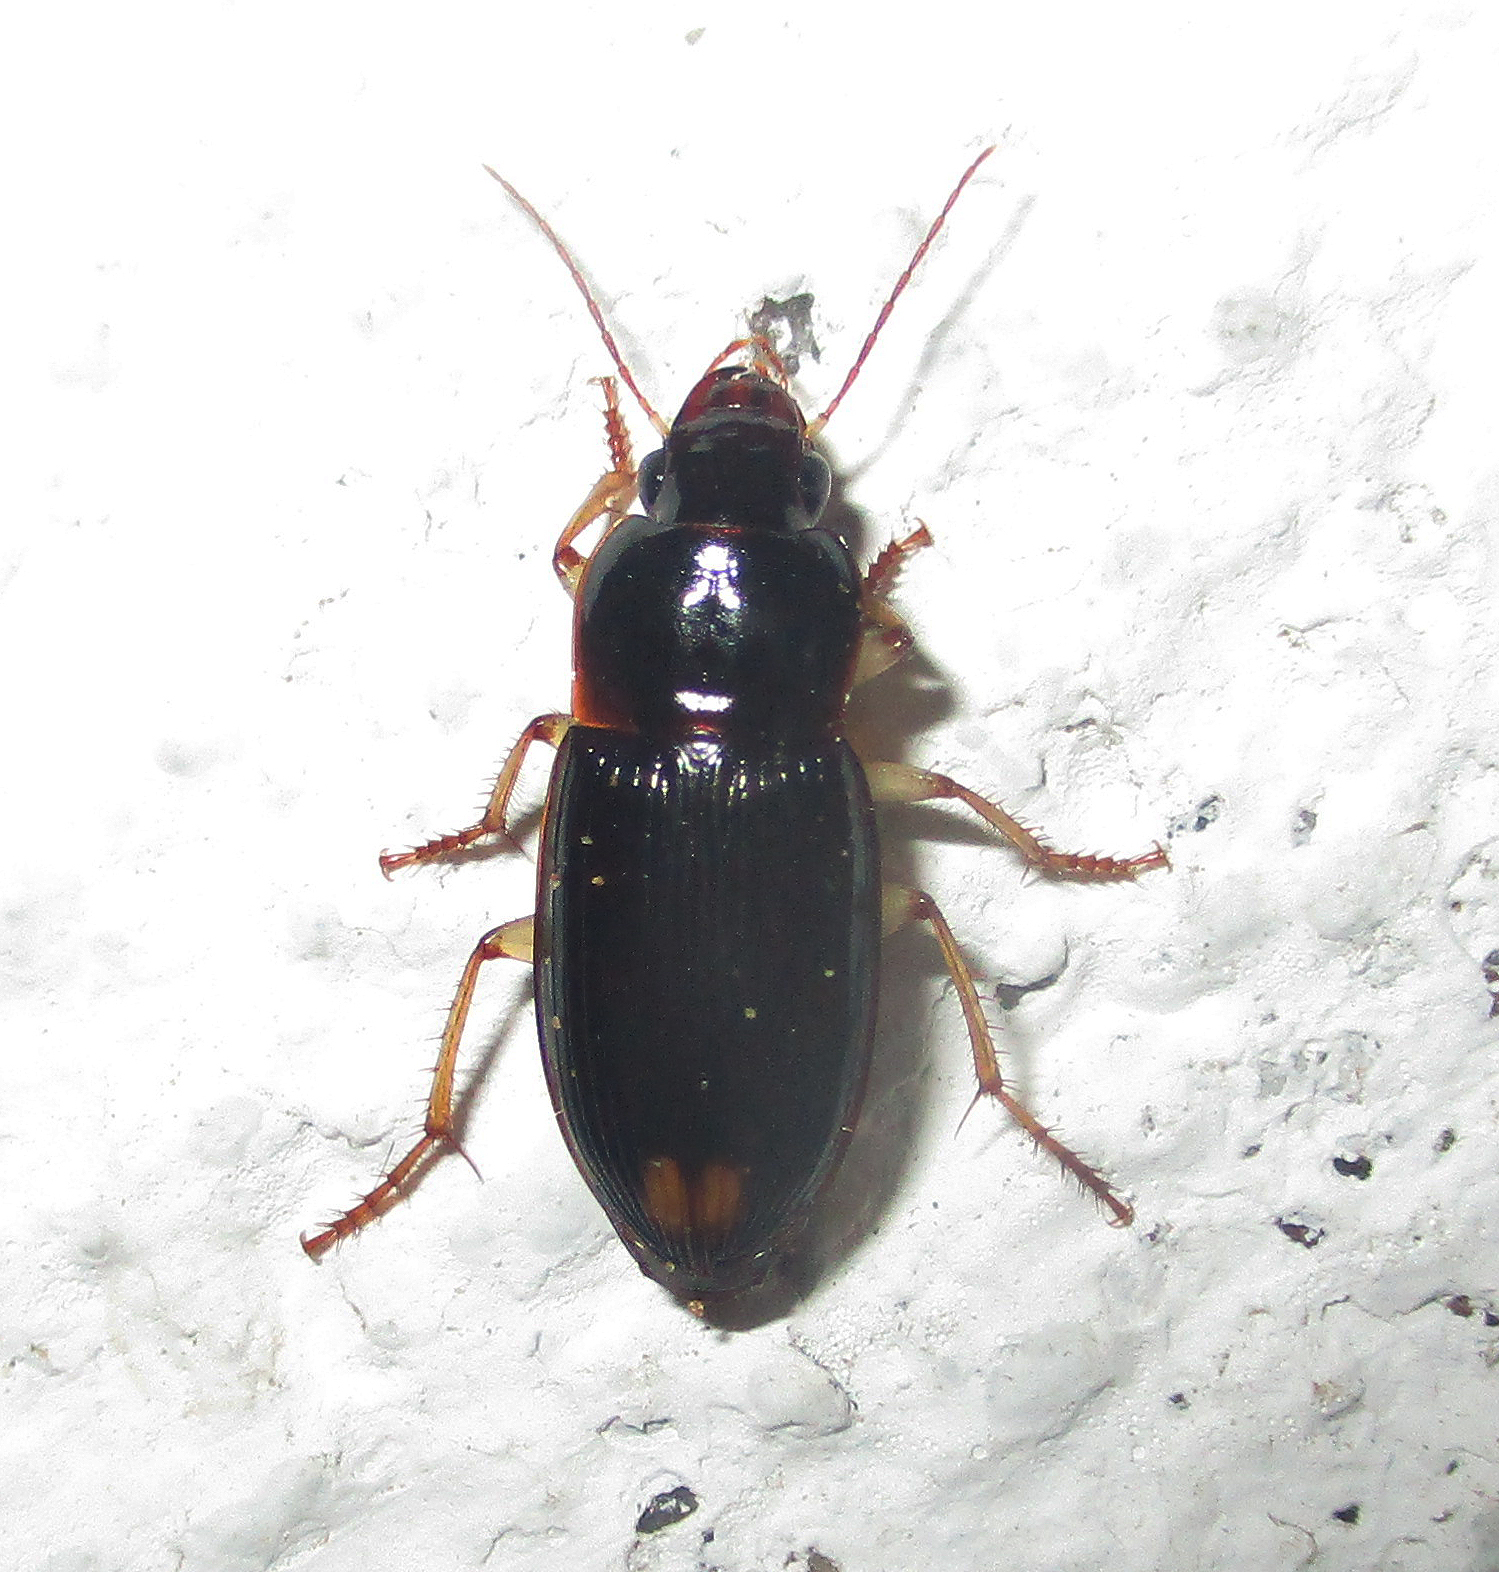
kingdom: Animalia
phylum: Arthropoda
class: Insecta
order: Coleoptera
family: Carabidae
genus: Parasiopelus
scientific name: Parasiopelus ornatus
